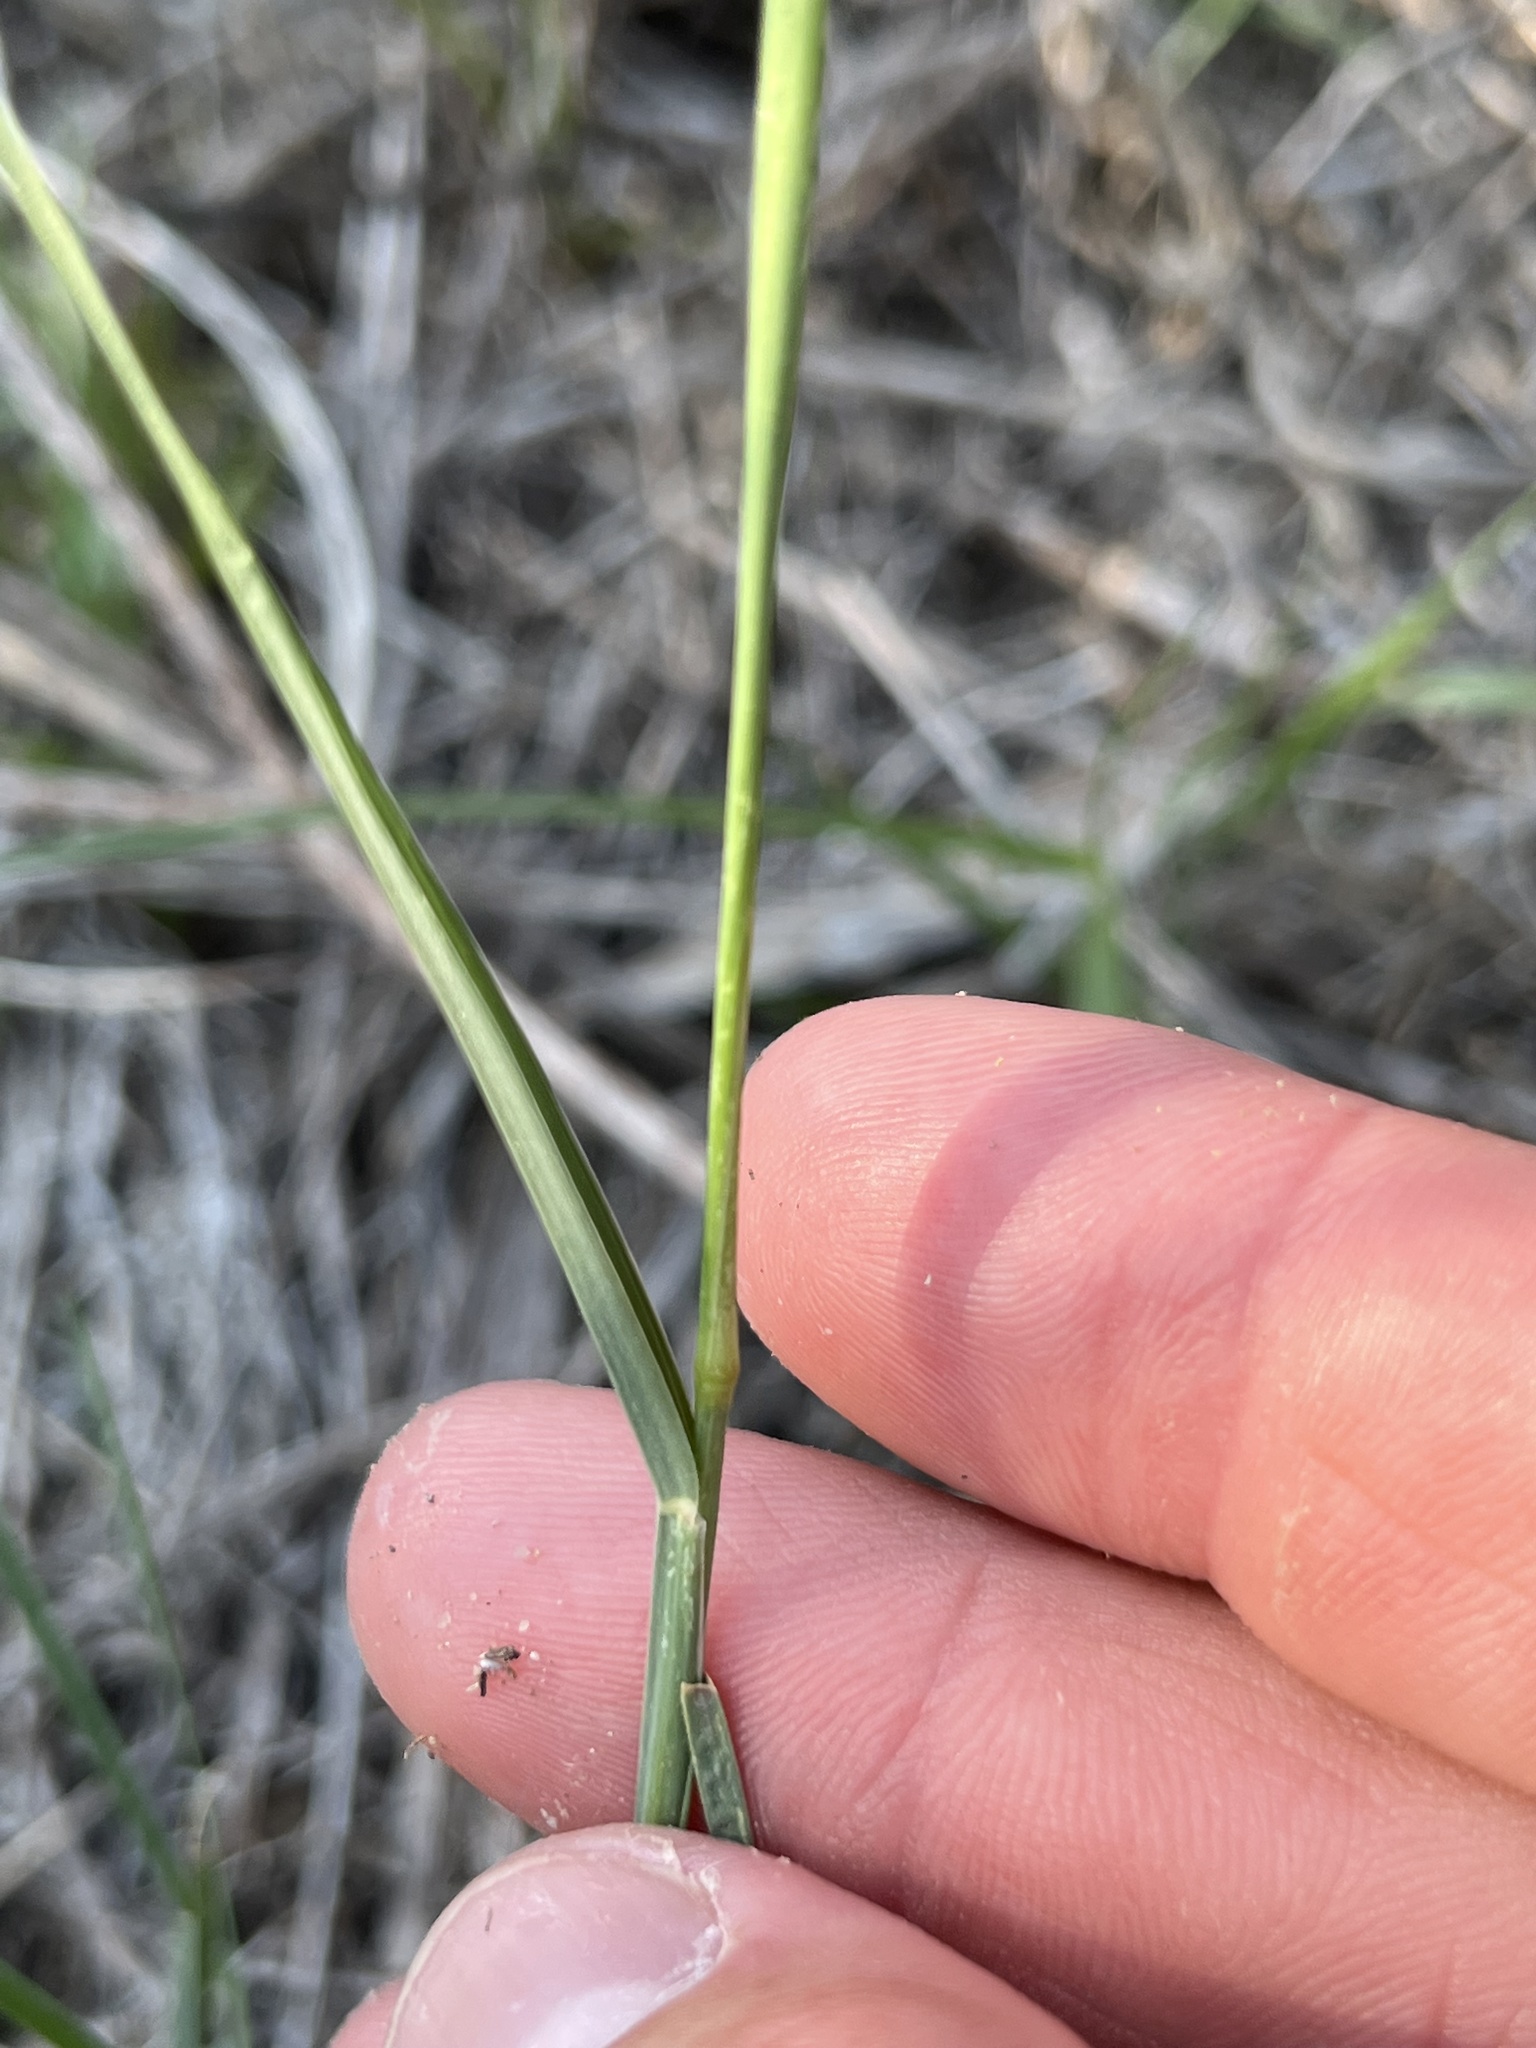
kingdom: Plantae
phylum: Tracheophyta
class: Liliopsida
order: Poales
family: Poaceae
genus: Chloris
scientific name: Chloris cucullata
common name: Hooded windmill grass
